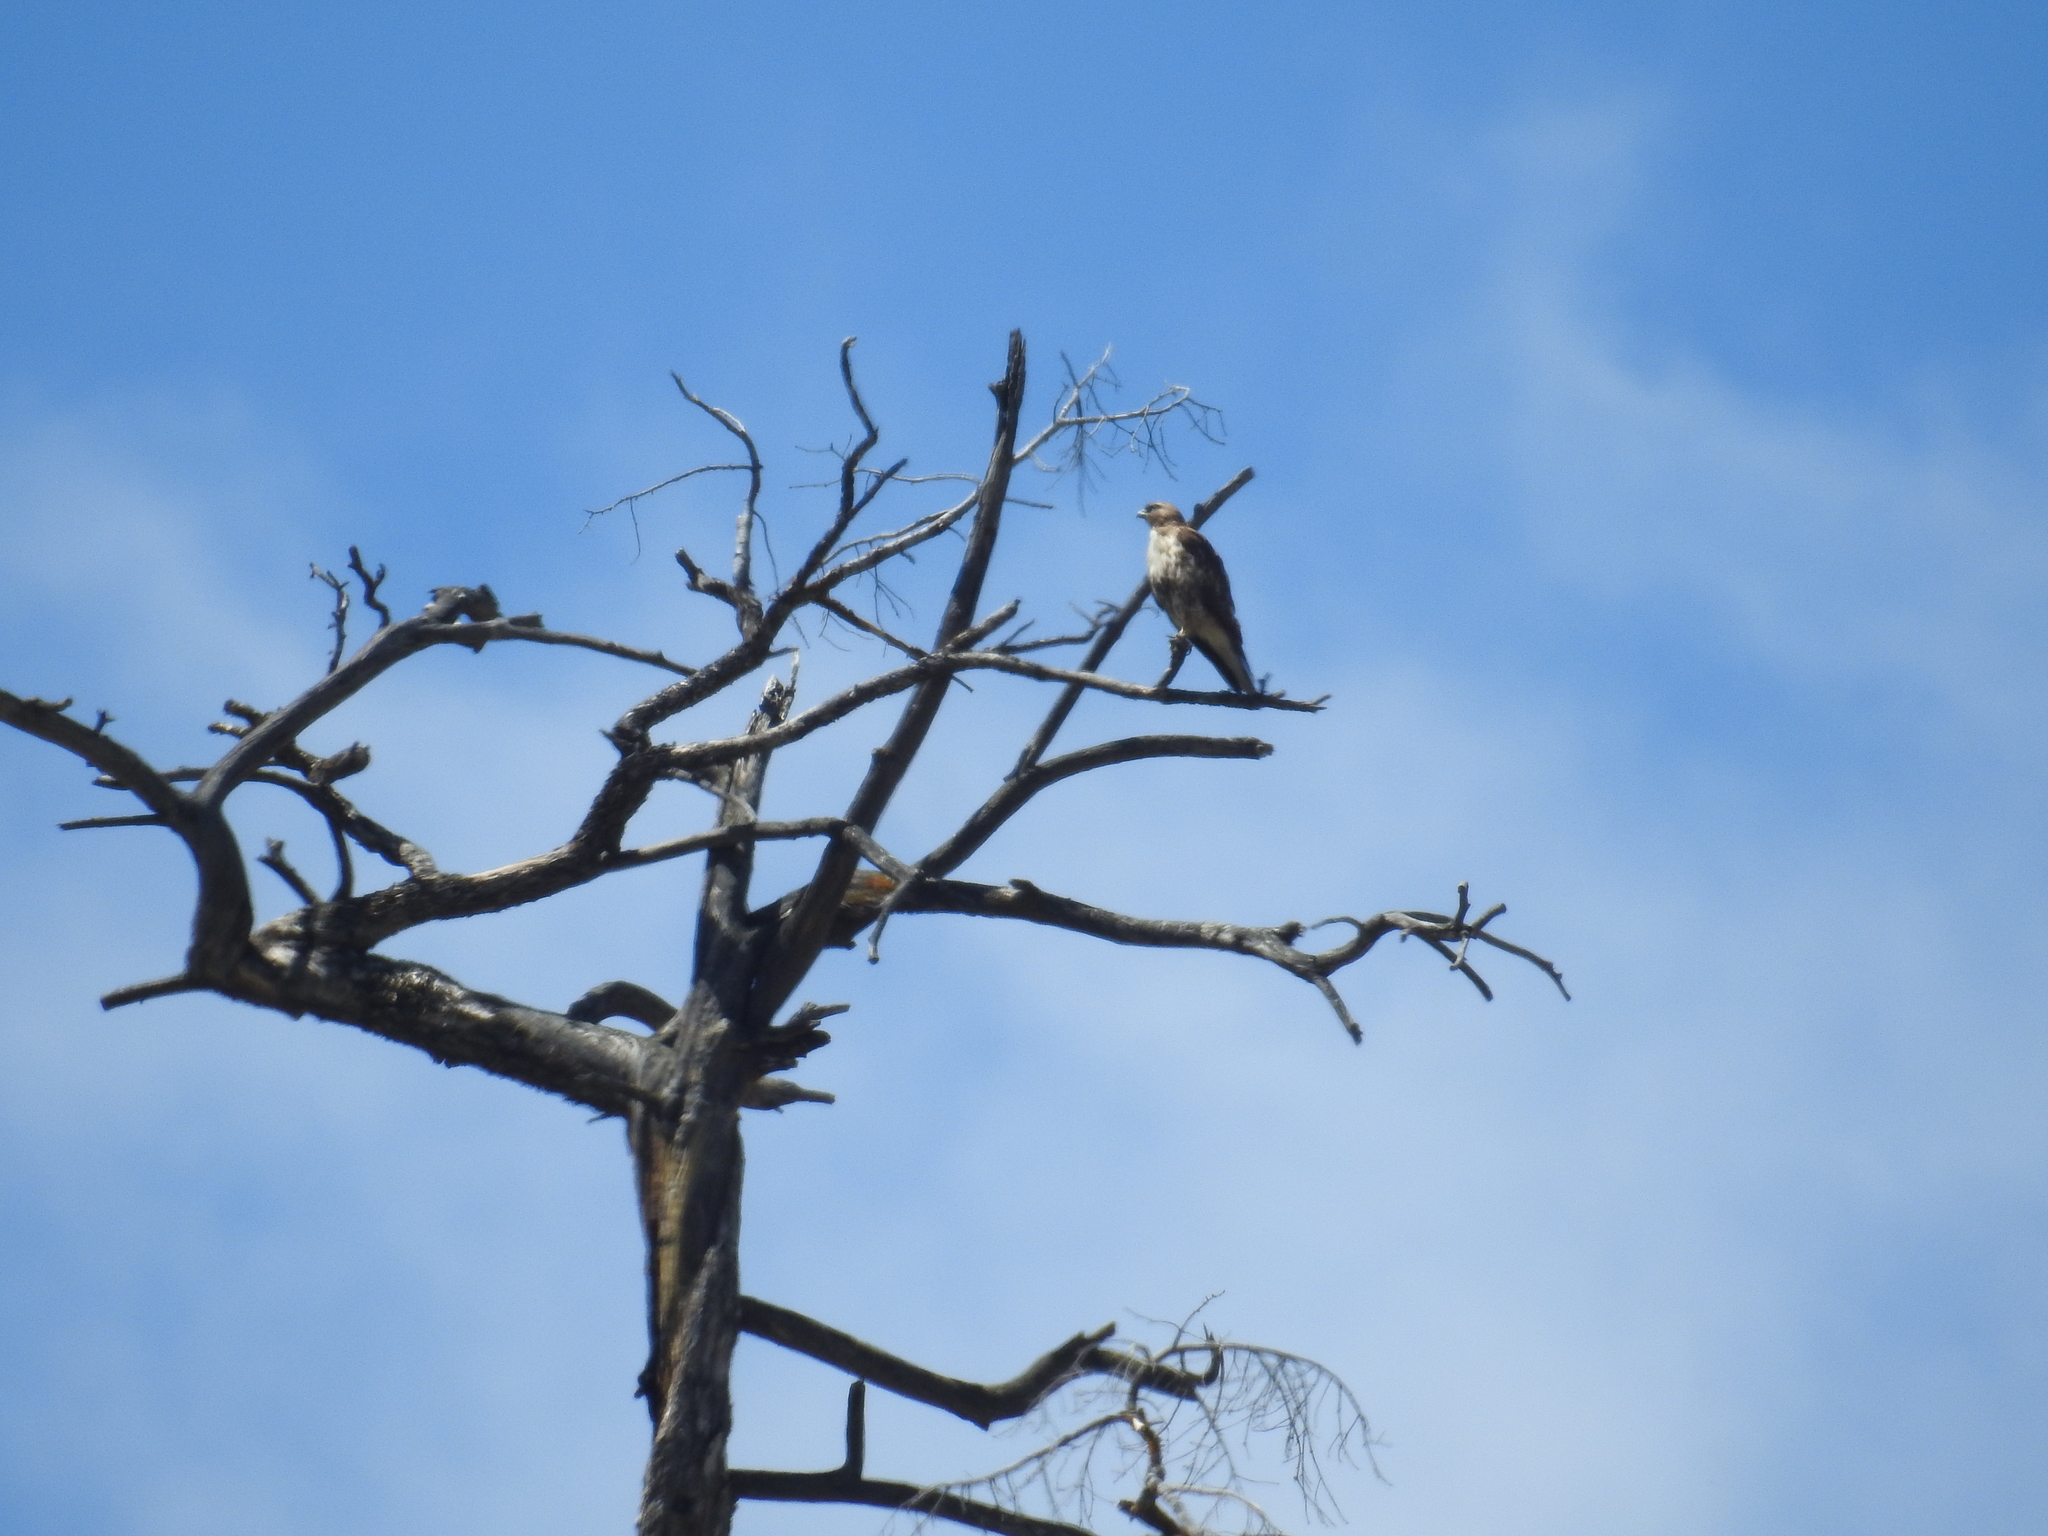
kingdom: Animalia
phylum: Chordata
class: Aves
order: Accipitriformes
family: Accipitridae
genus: Buteo
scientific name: Buteo jamaicensis
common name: Red-tailed hawk
